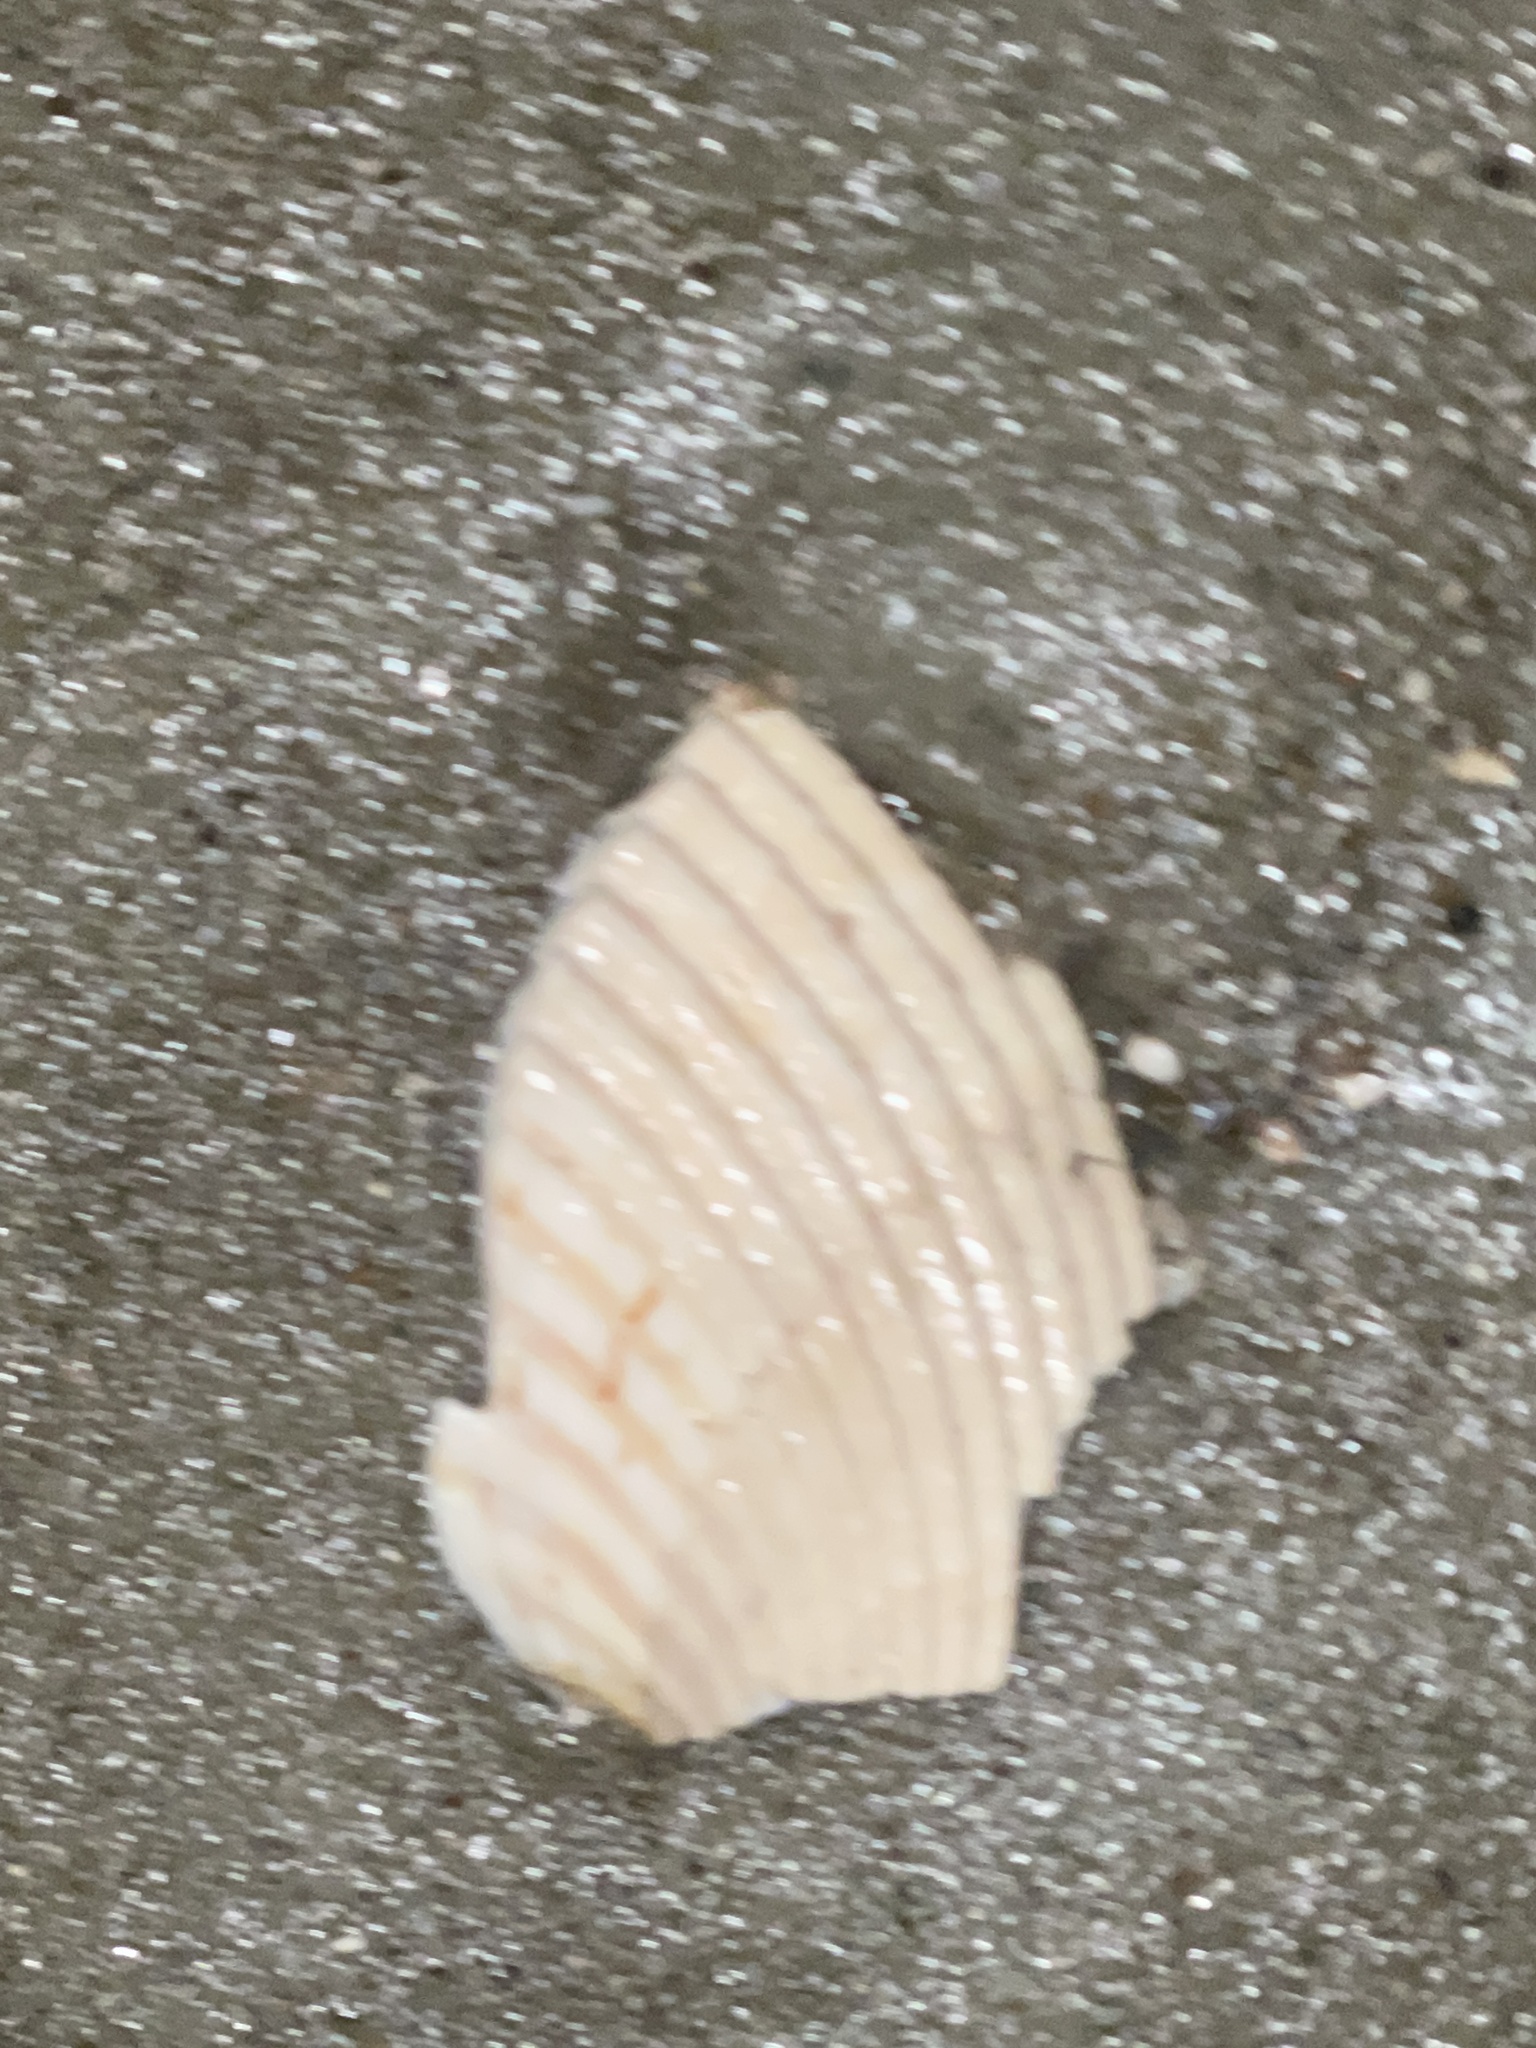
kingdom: Animalia
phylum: Mollusca
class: Bivalvia
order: Cardiida
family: Cardiidae
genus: Dinocardium
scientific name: Dinocardium robustum
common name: Atlantic giant cockle
